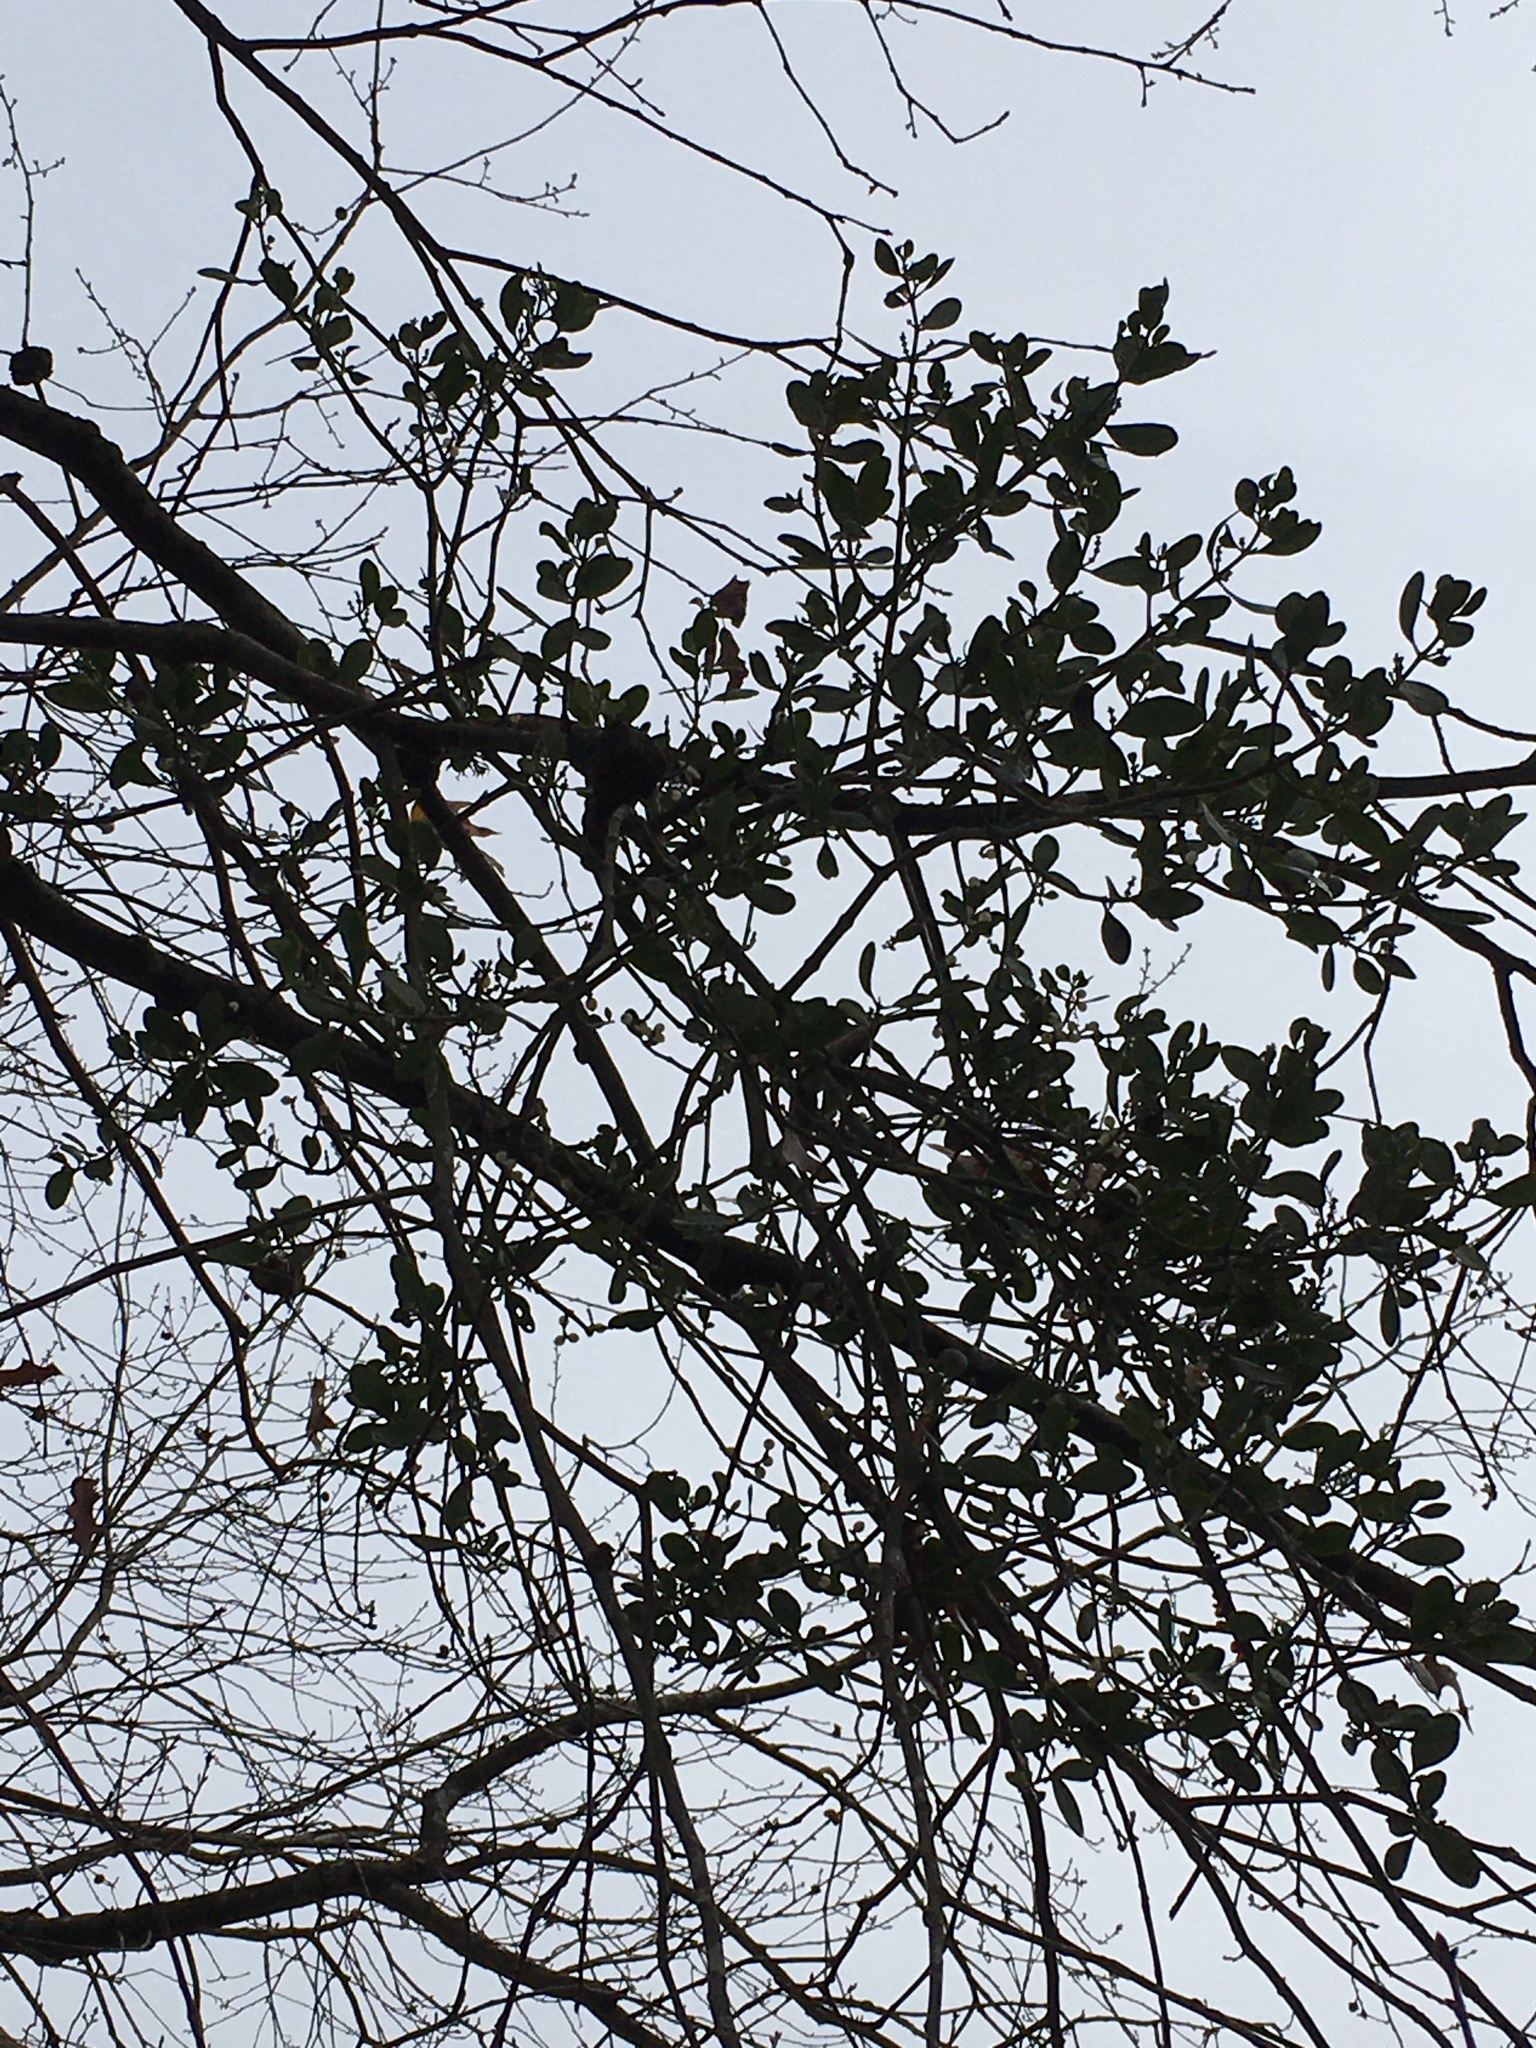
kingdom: Plantae
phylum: Tracheophyta
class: Magnoliopsida
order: Santalales
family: Viscaceae
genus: Phoradendron
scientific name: Phoradendron leucarpum
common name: Pacific mistletoe
